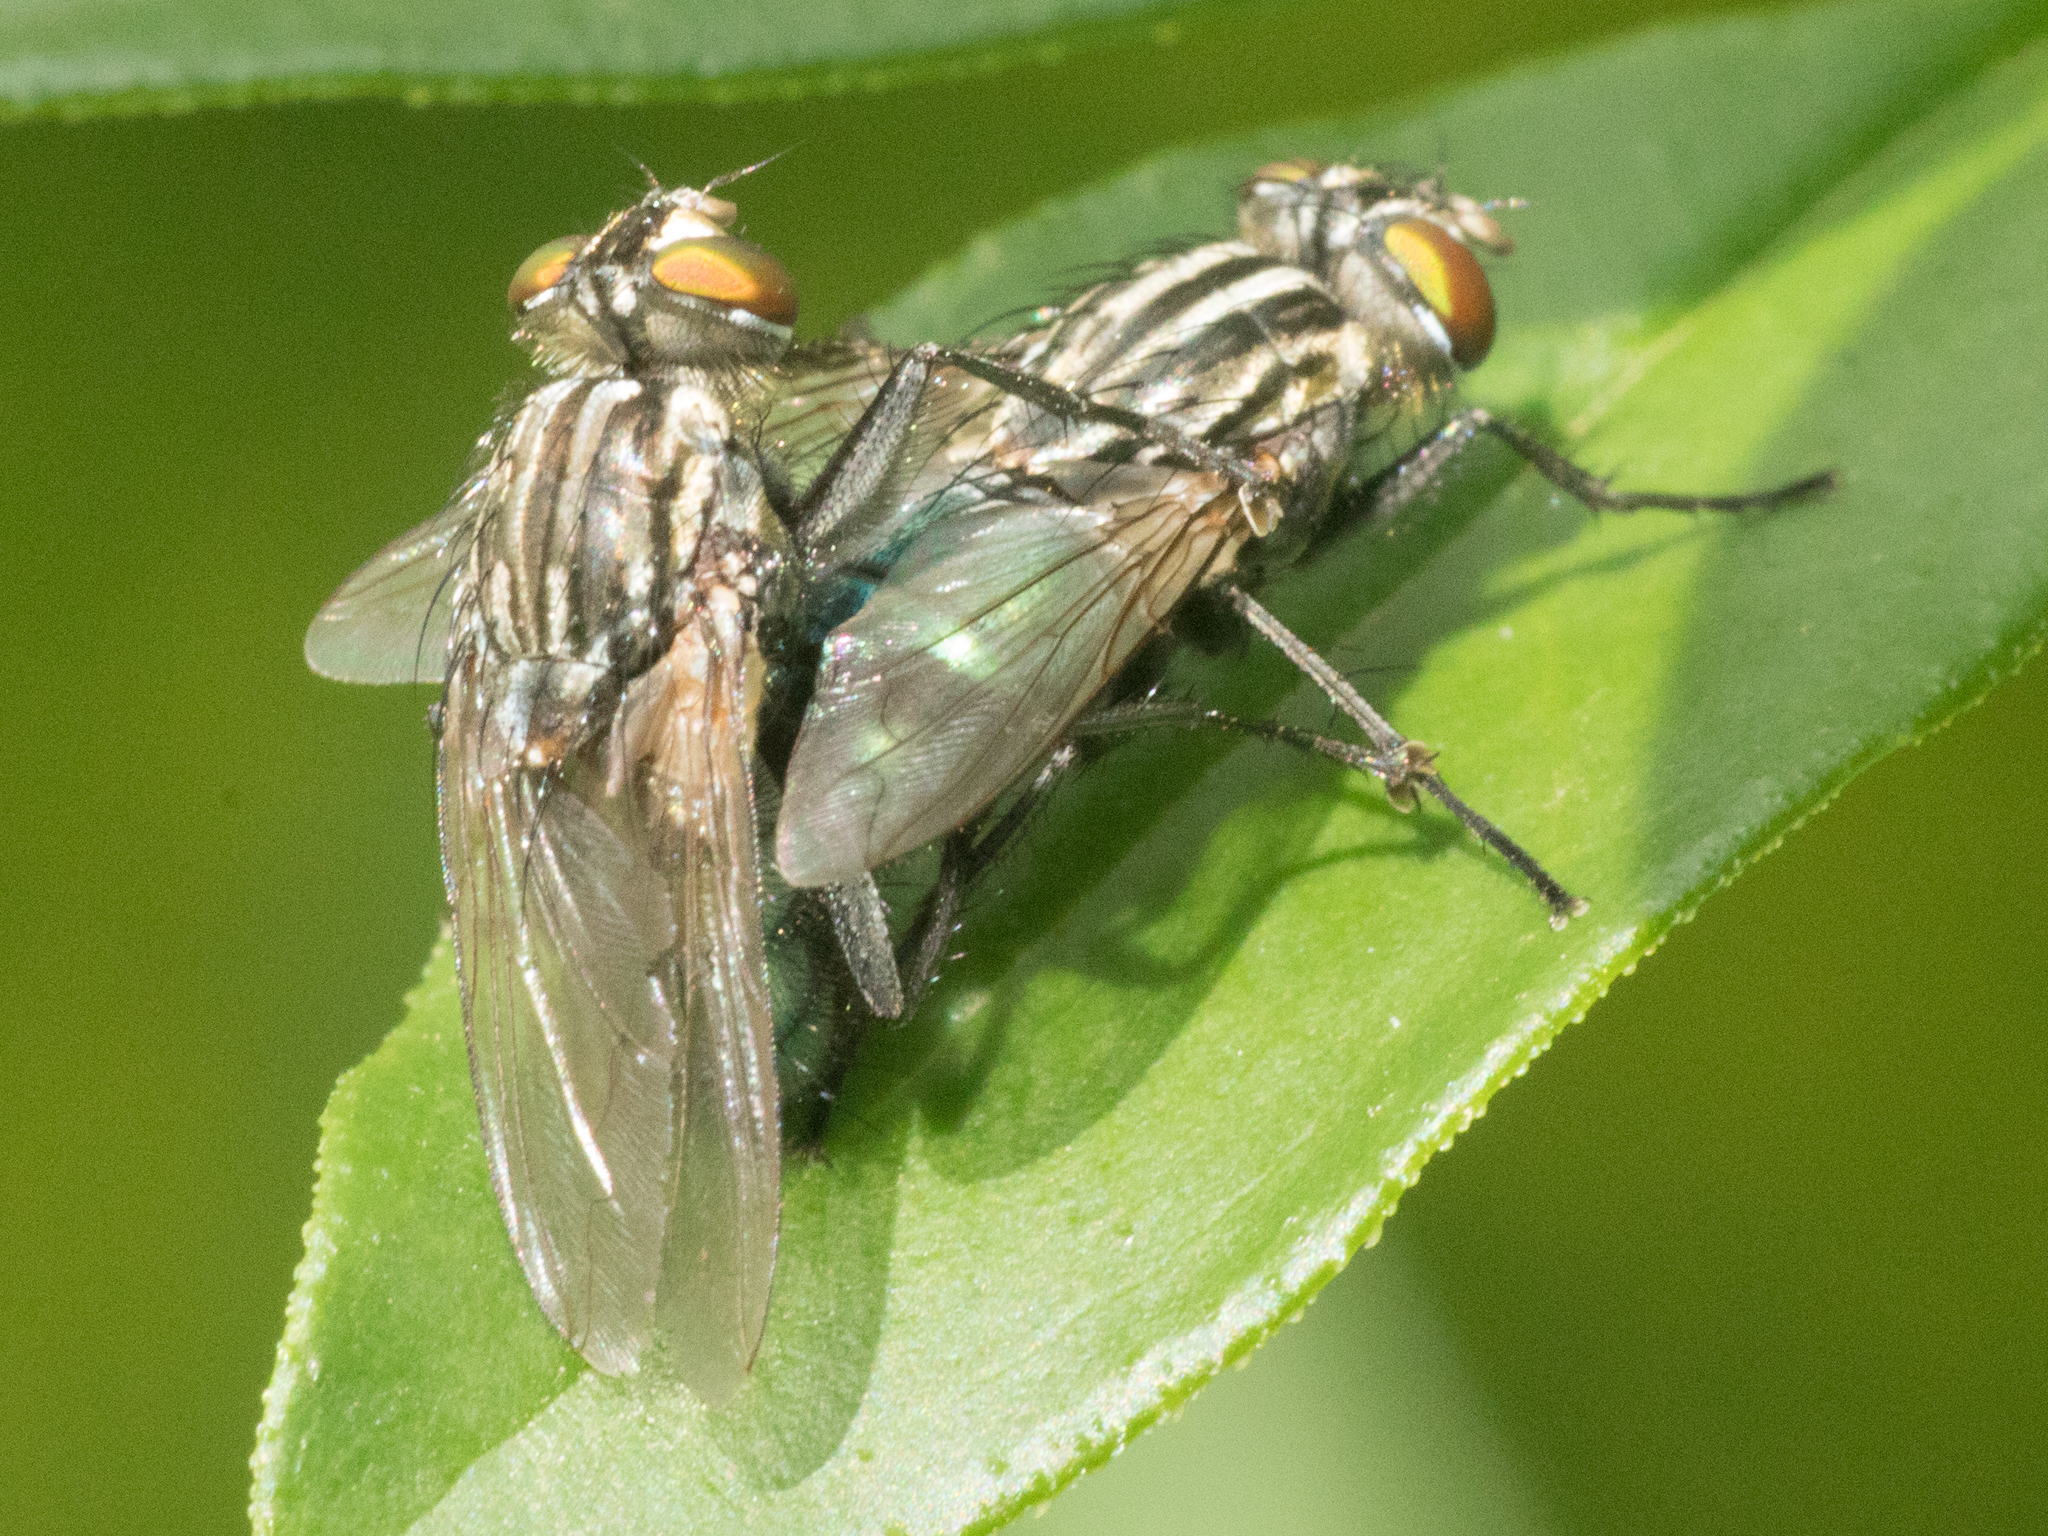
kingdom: Animalia
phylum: Arthropoda
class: Insecta
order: Diptera
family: Calliphoridae
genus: Sarconesia
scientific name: Sarconesia chlorogaster
